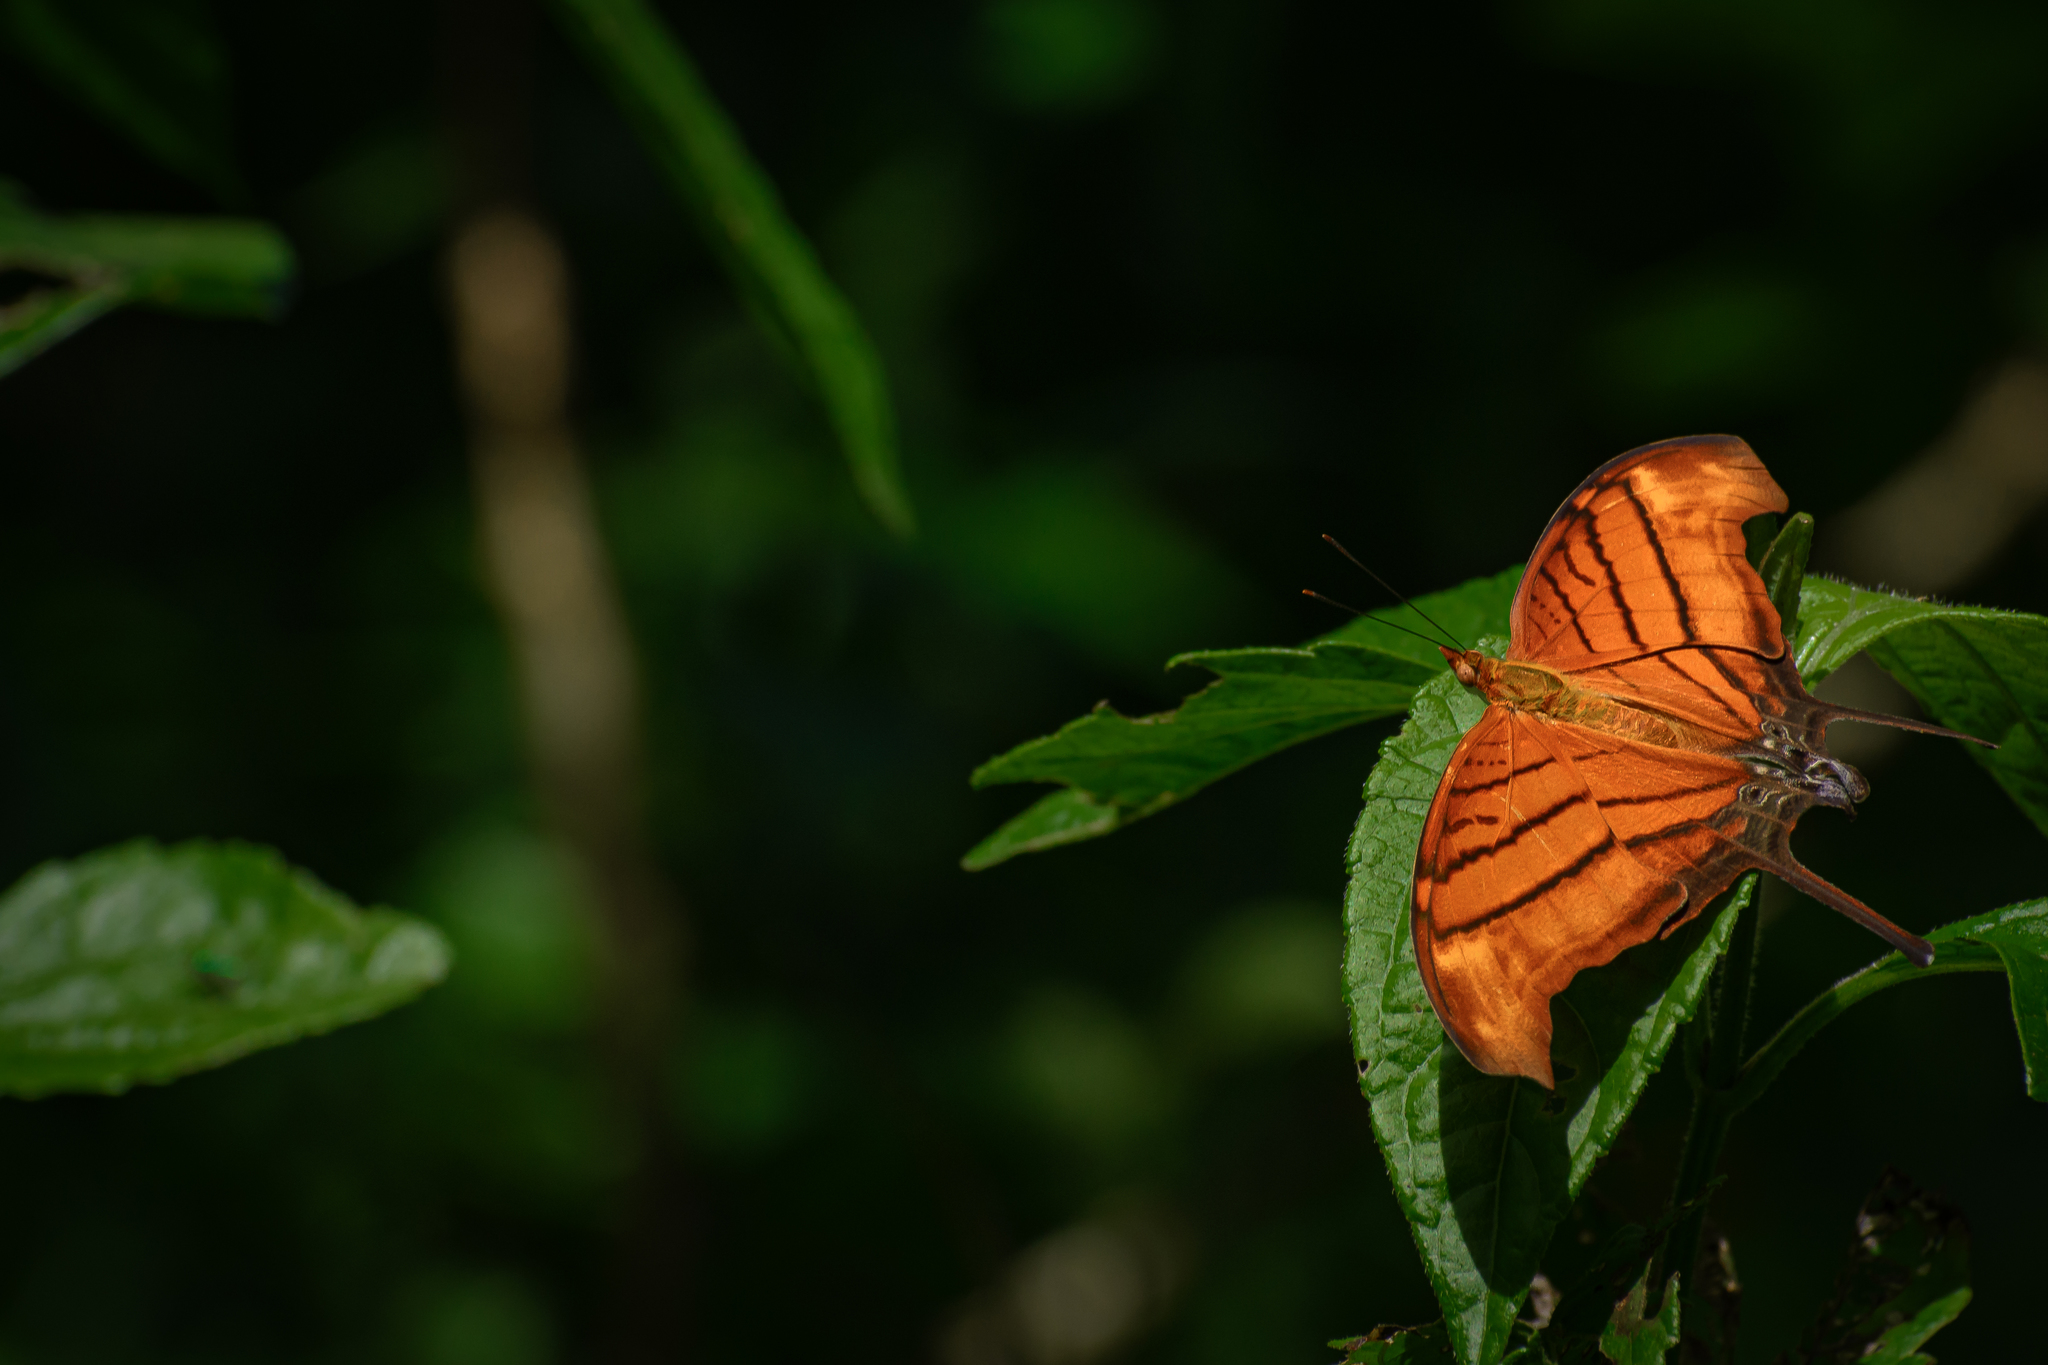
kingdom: Animalia
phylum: Arthropoda
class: Insecta
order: Lepidoptera
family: Nymphalidae
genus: Marpesia
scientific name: Marpesia petreus
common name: Red dagger wing
